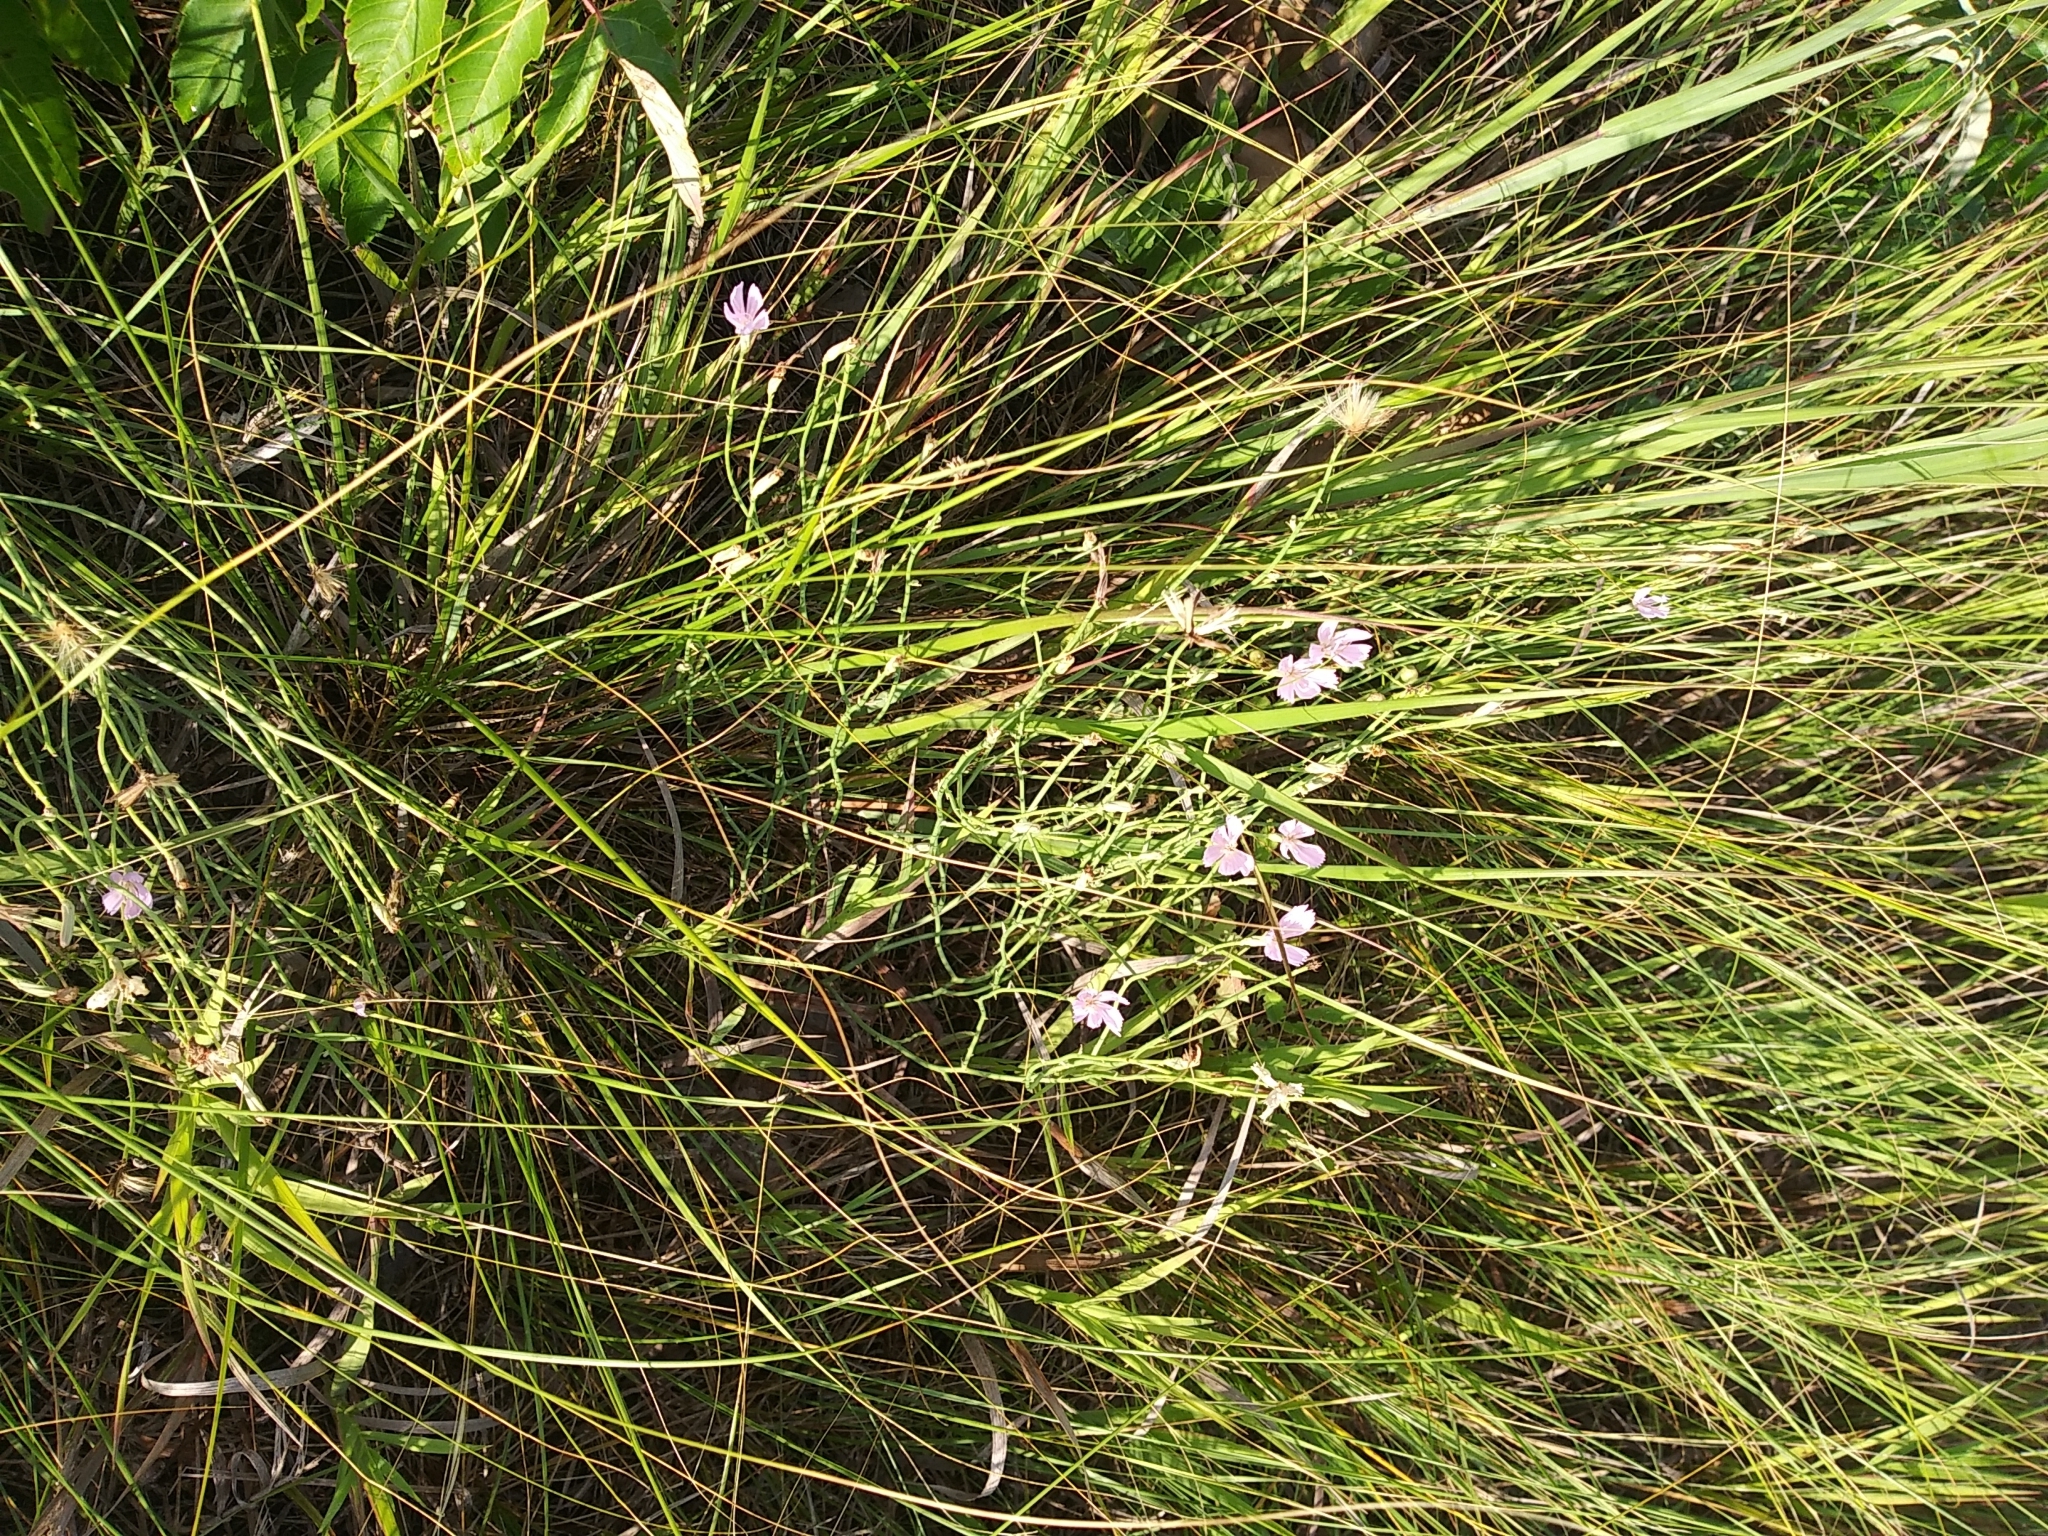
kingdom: Plantae
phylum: Tracheophyta
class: Magnoliopsida
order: Asterales
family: Asteraceae
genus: Lygodesmia
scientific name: Lygodesmia juncea
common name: Common skeletonweed
